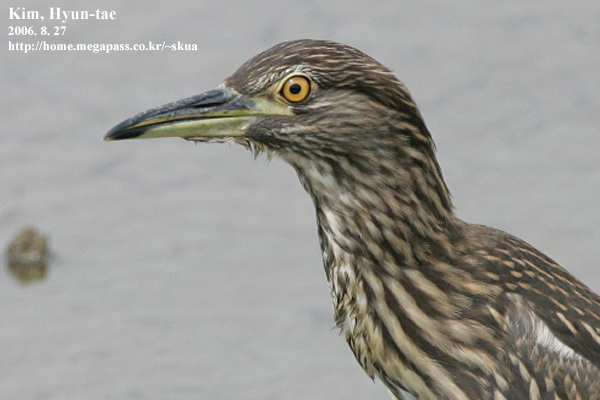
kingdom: Animalia
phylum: Chordata
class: Aves
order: Pelecaniformes
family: Ardeidae
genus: Nycticorax
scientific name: Nycticorax nycticorax
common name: Black-crowned night heron
